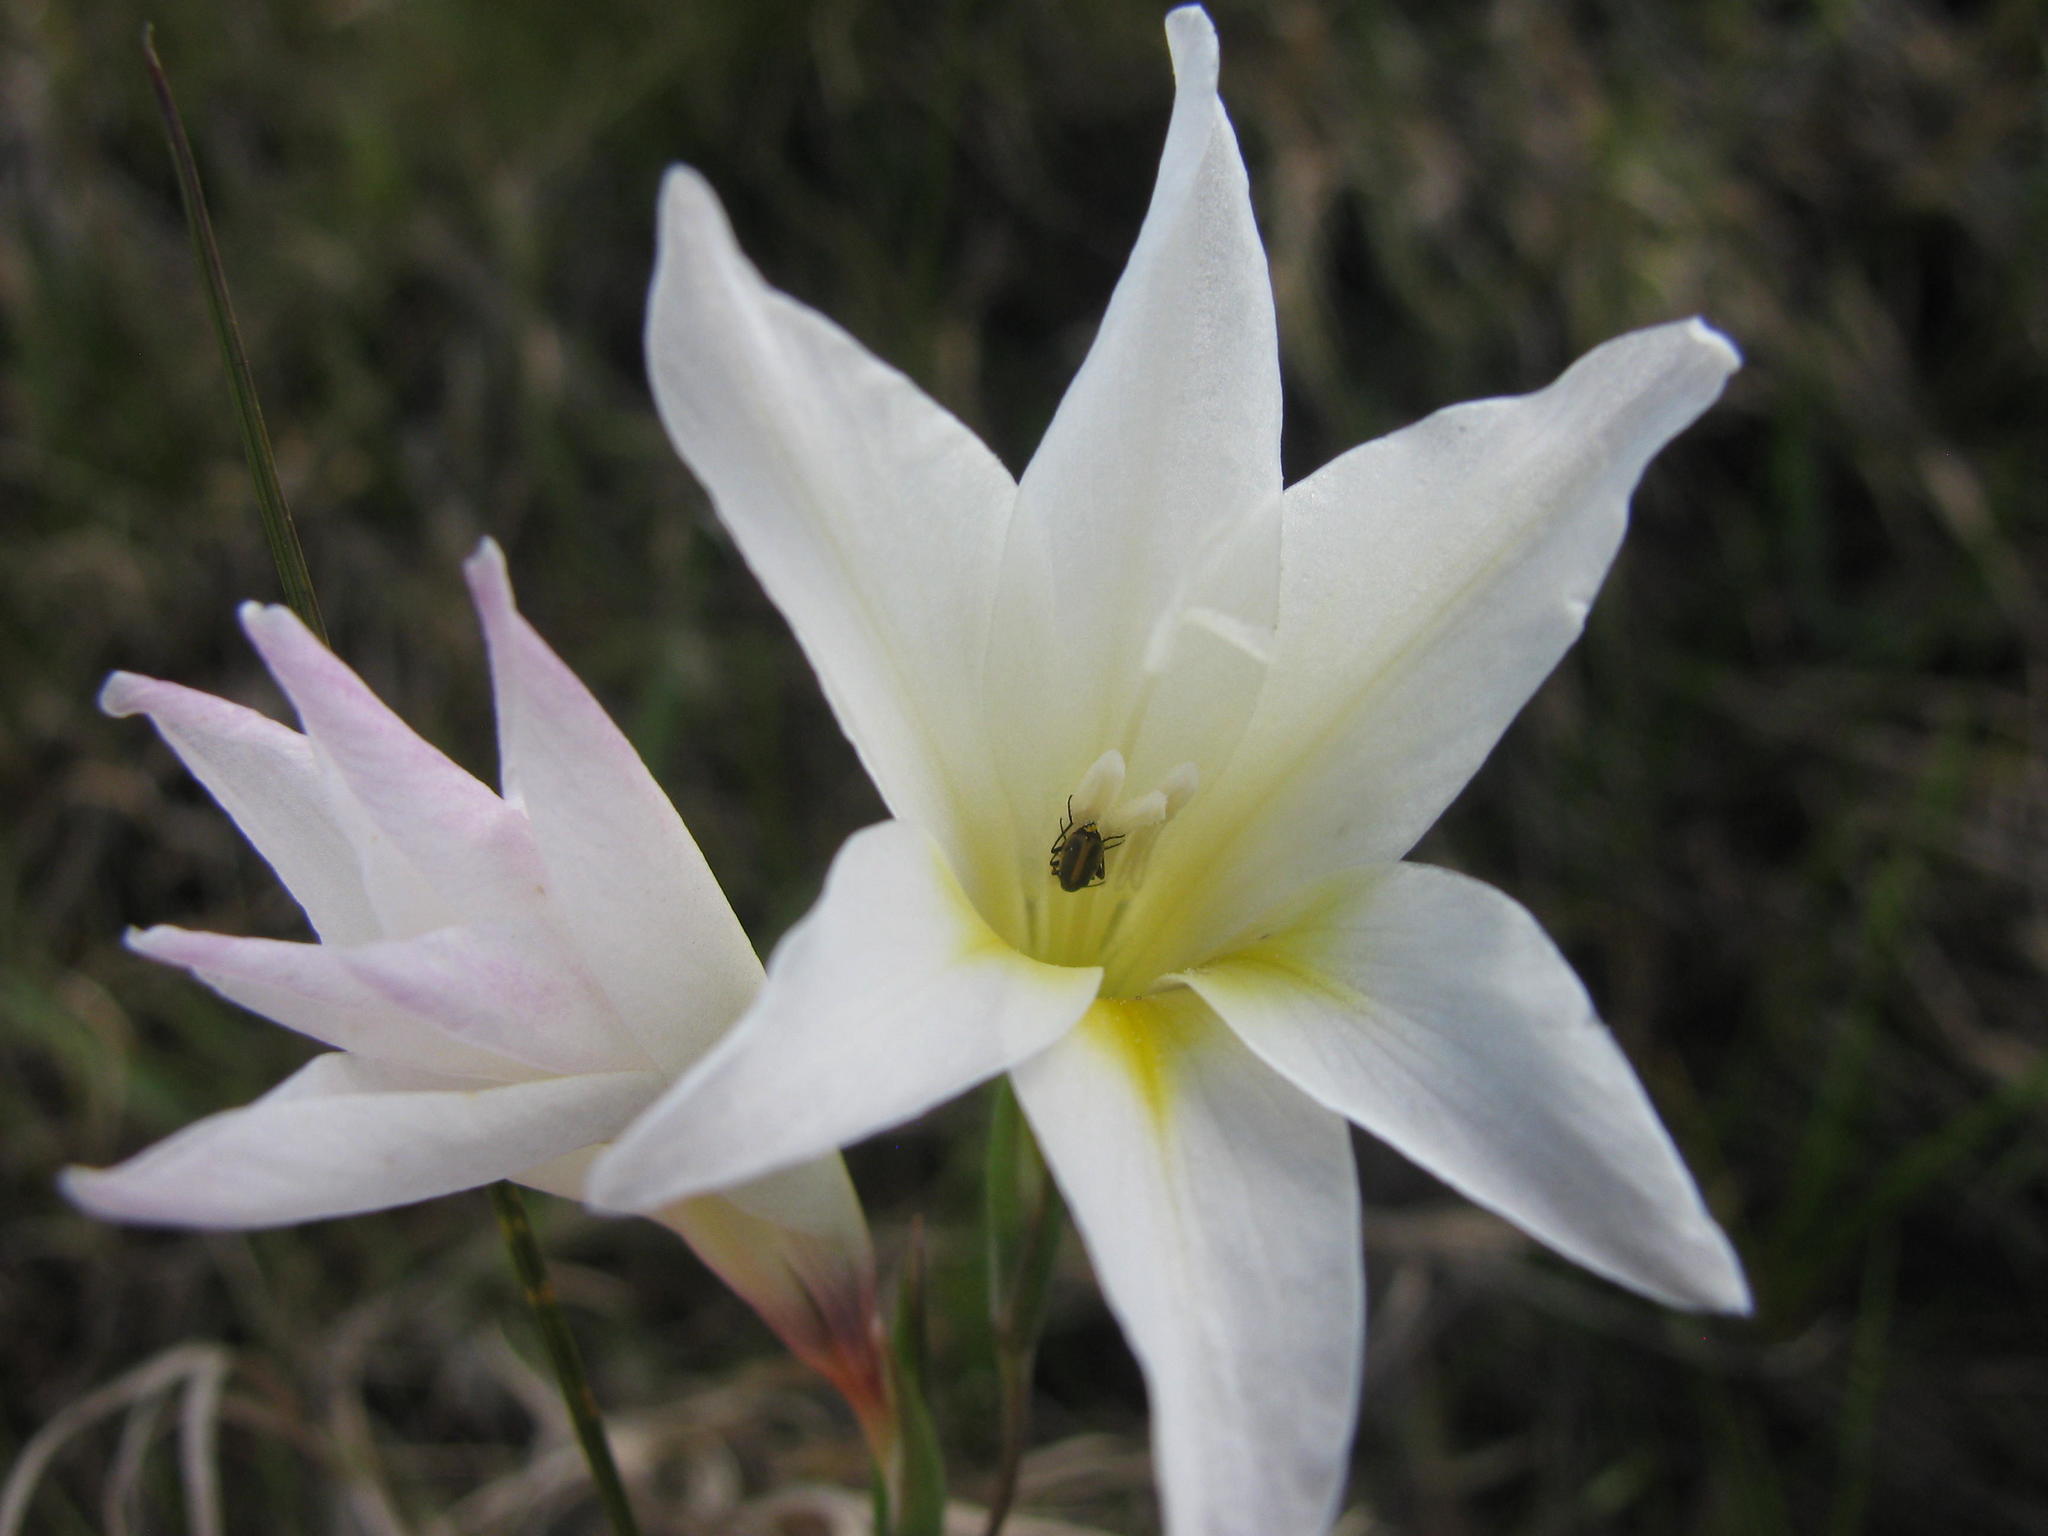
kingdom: Plantae
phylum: Tracheophyta
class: Liliopsida
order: Asparagales
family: Iridaceae
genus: Gladiolus
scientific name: Gladiolus trichonemifolius
